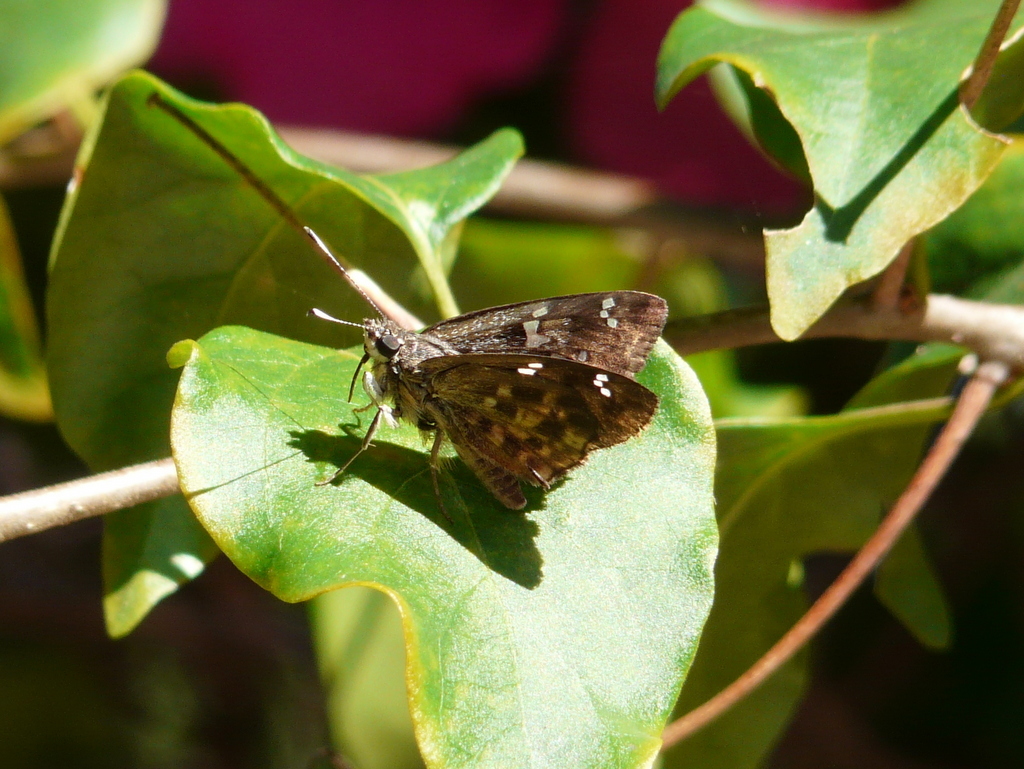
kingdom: Animalia
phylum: Arthropoda
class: Insecta
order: Lepidoptera
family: Hesperiidae
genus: Sarangesa
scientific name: Sarangesa seineri
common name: Dark elfin
